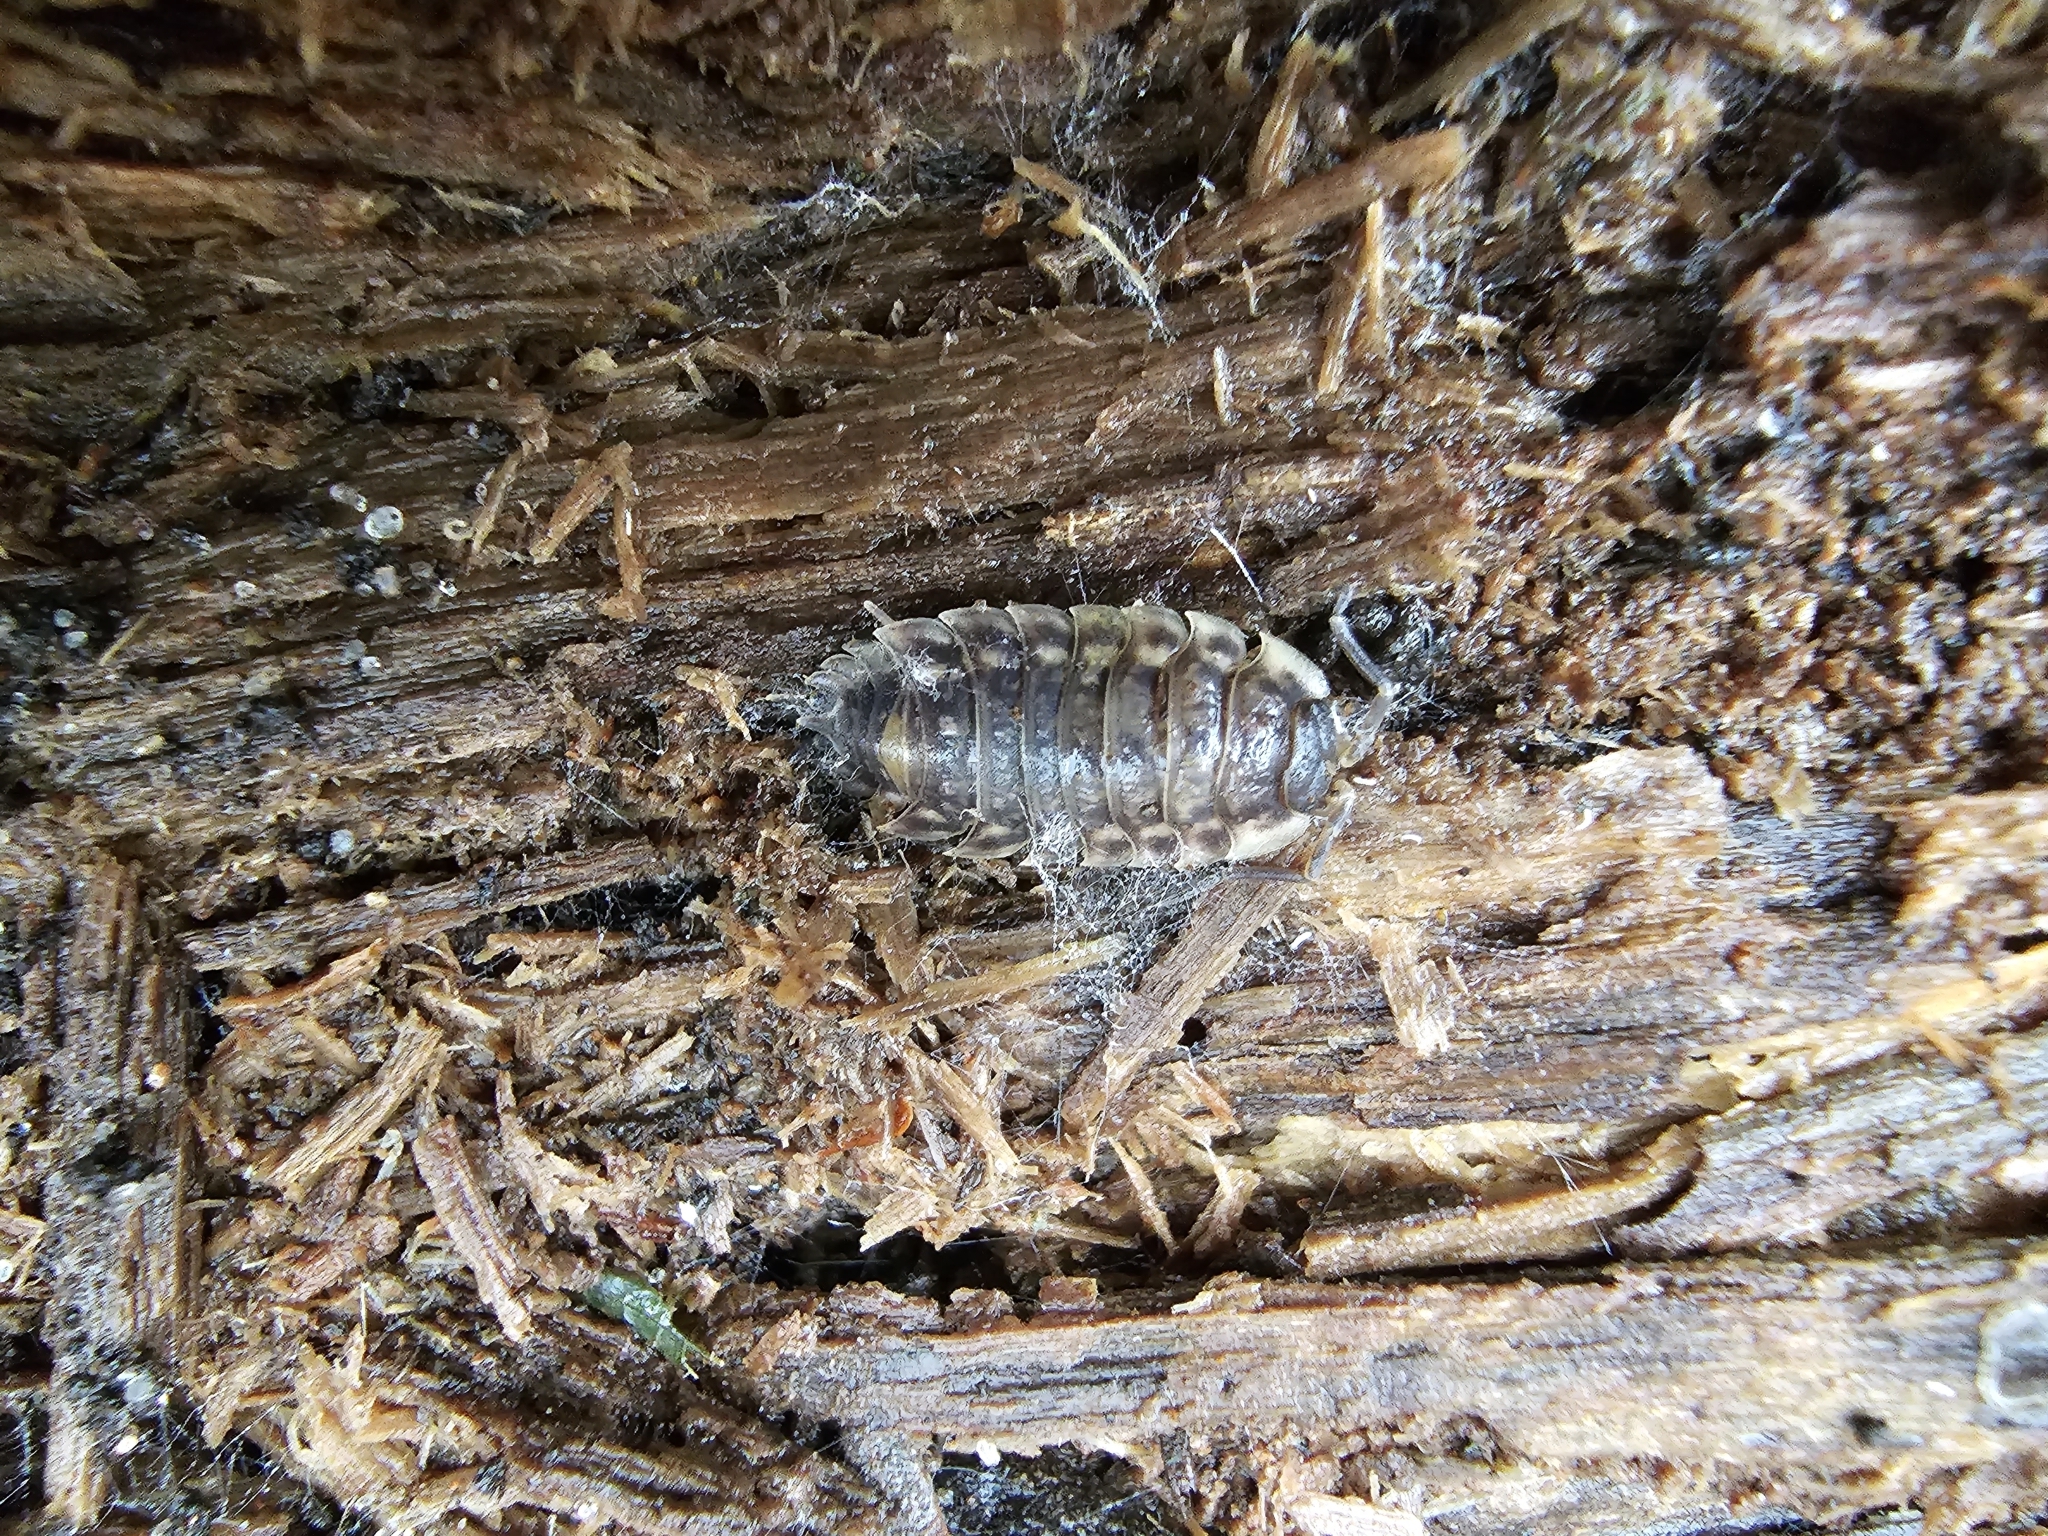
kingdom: Animalia
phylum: Arthropoda
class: Malacostraca
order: Isopoda
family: Oniscidae
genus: Oniscus
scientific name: Oniscus asellus
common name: Common shiny woodlouse
